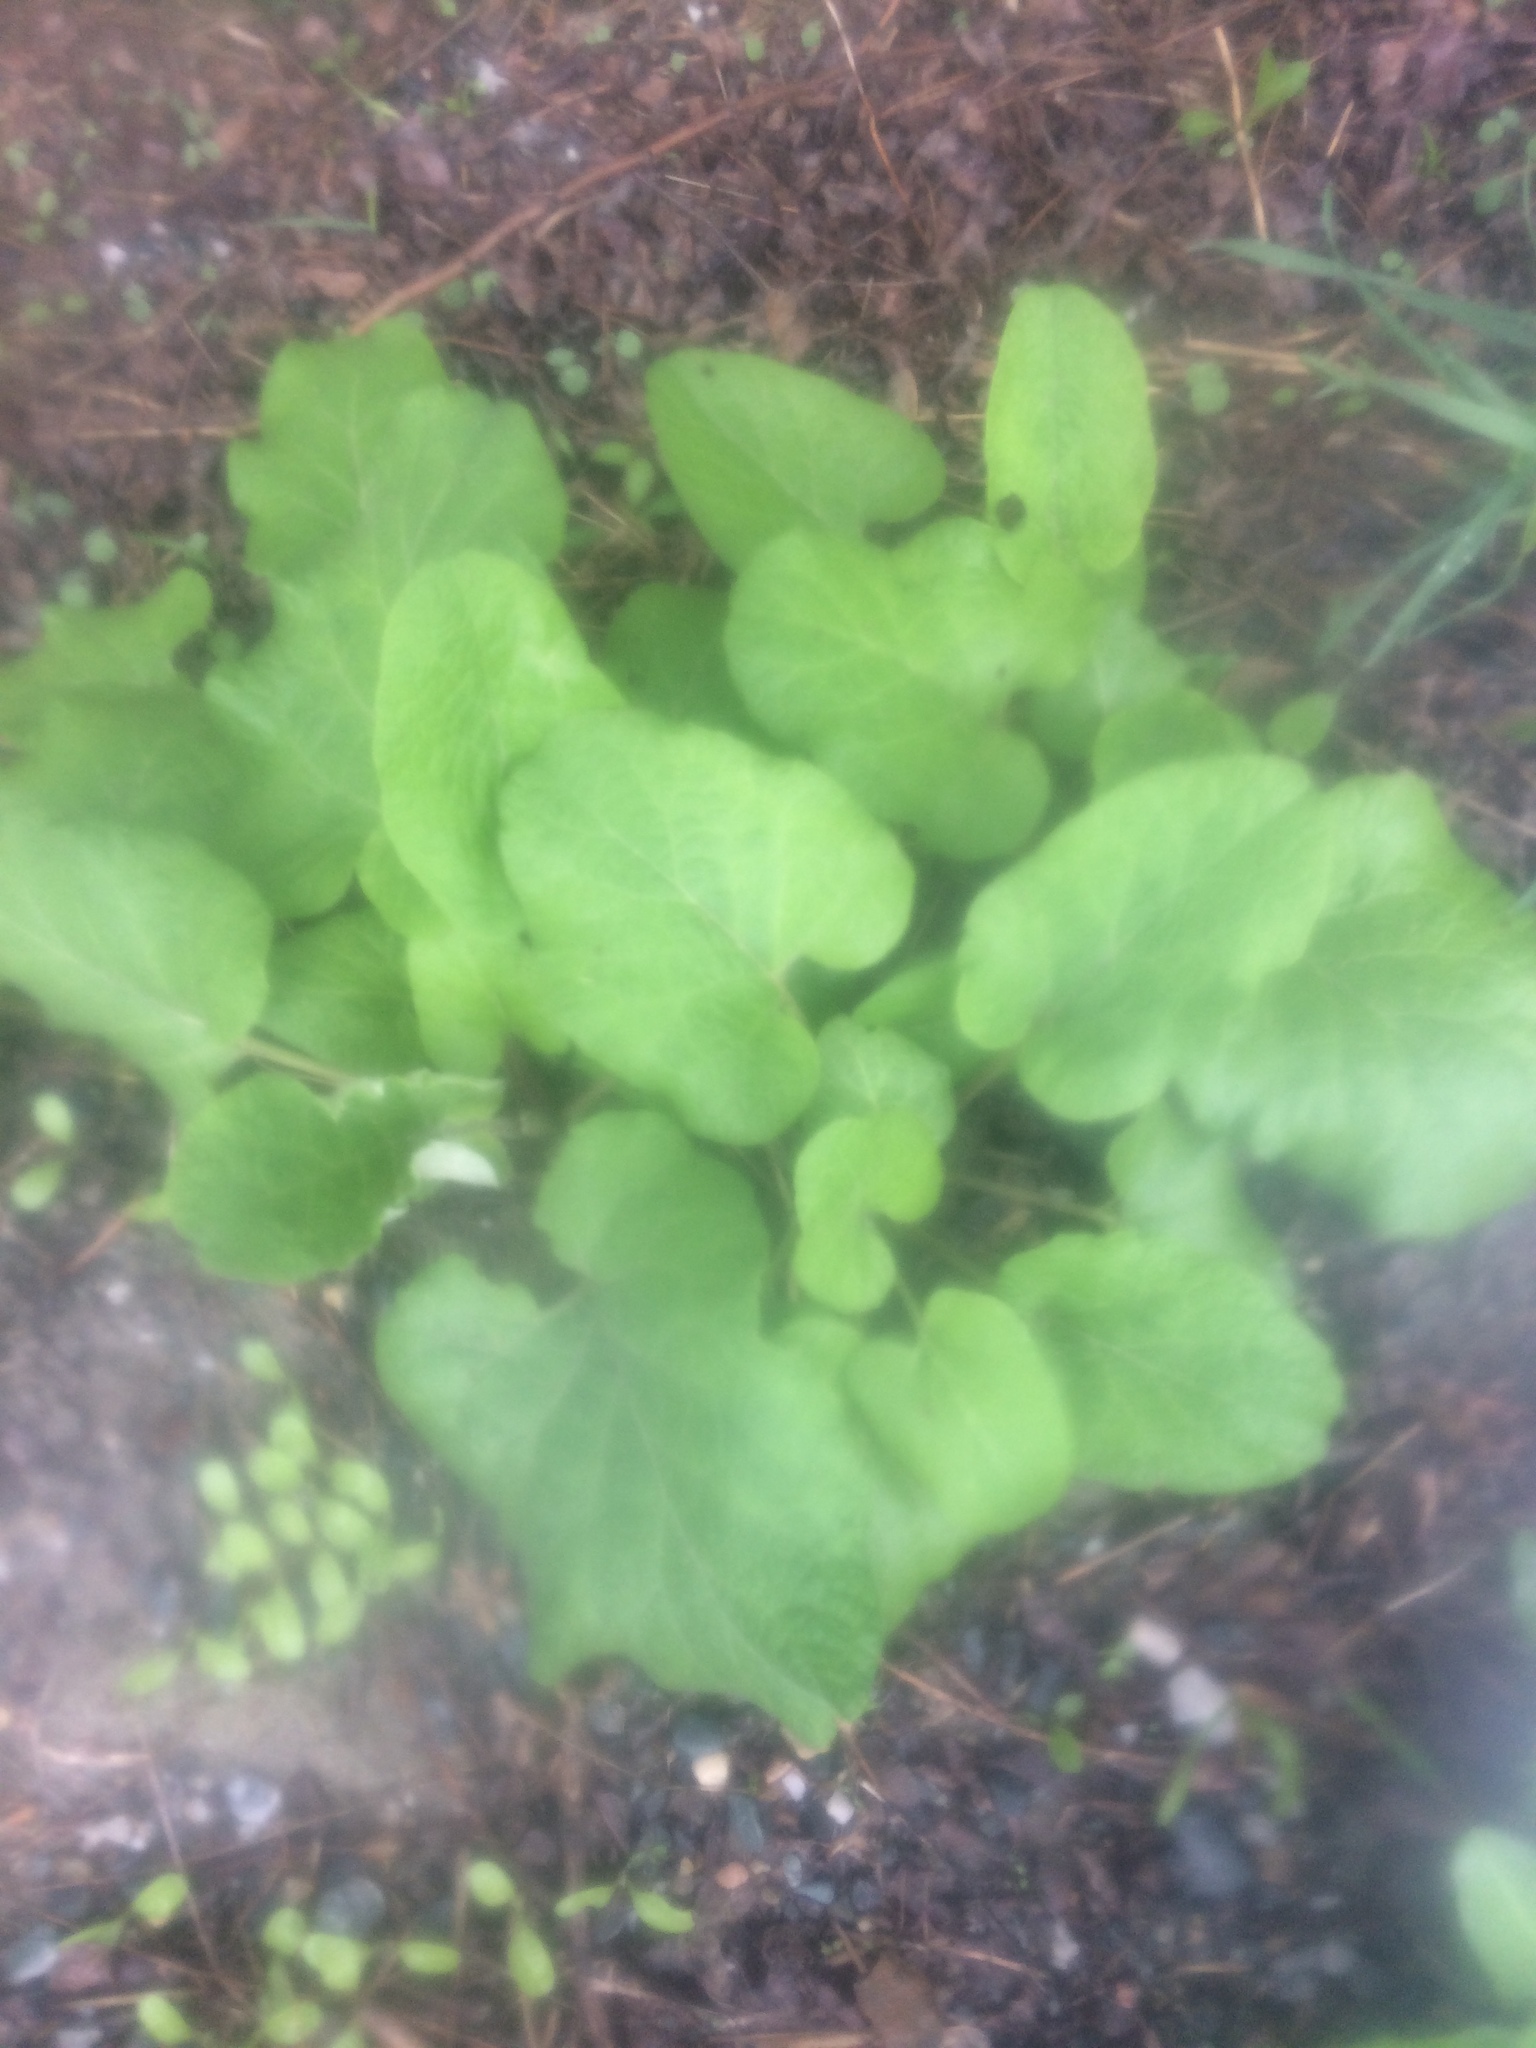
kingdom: Plantae
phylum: Tracheophyta
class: Magnoliopsida
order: Asterales
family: Asteraceae
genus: Arctium
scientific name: Arctium lappa
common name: Greater burdock
